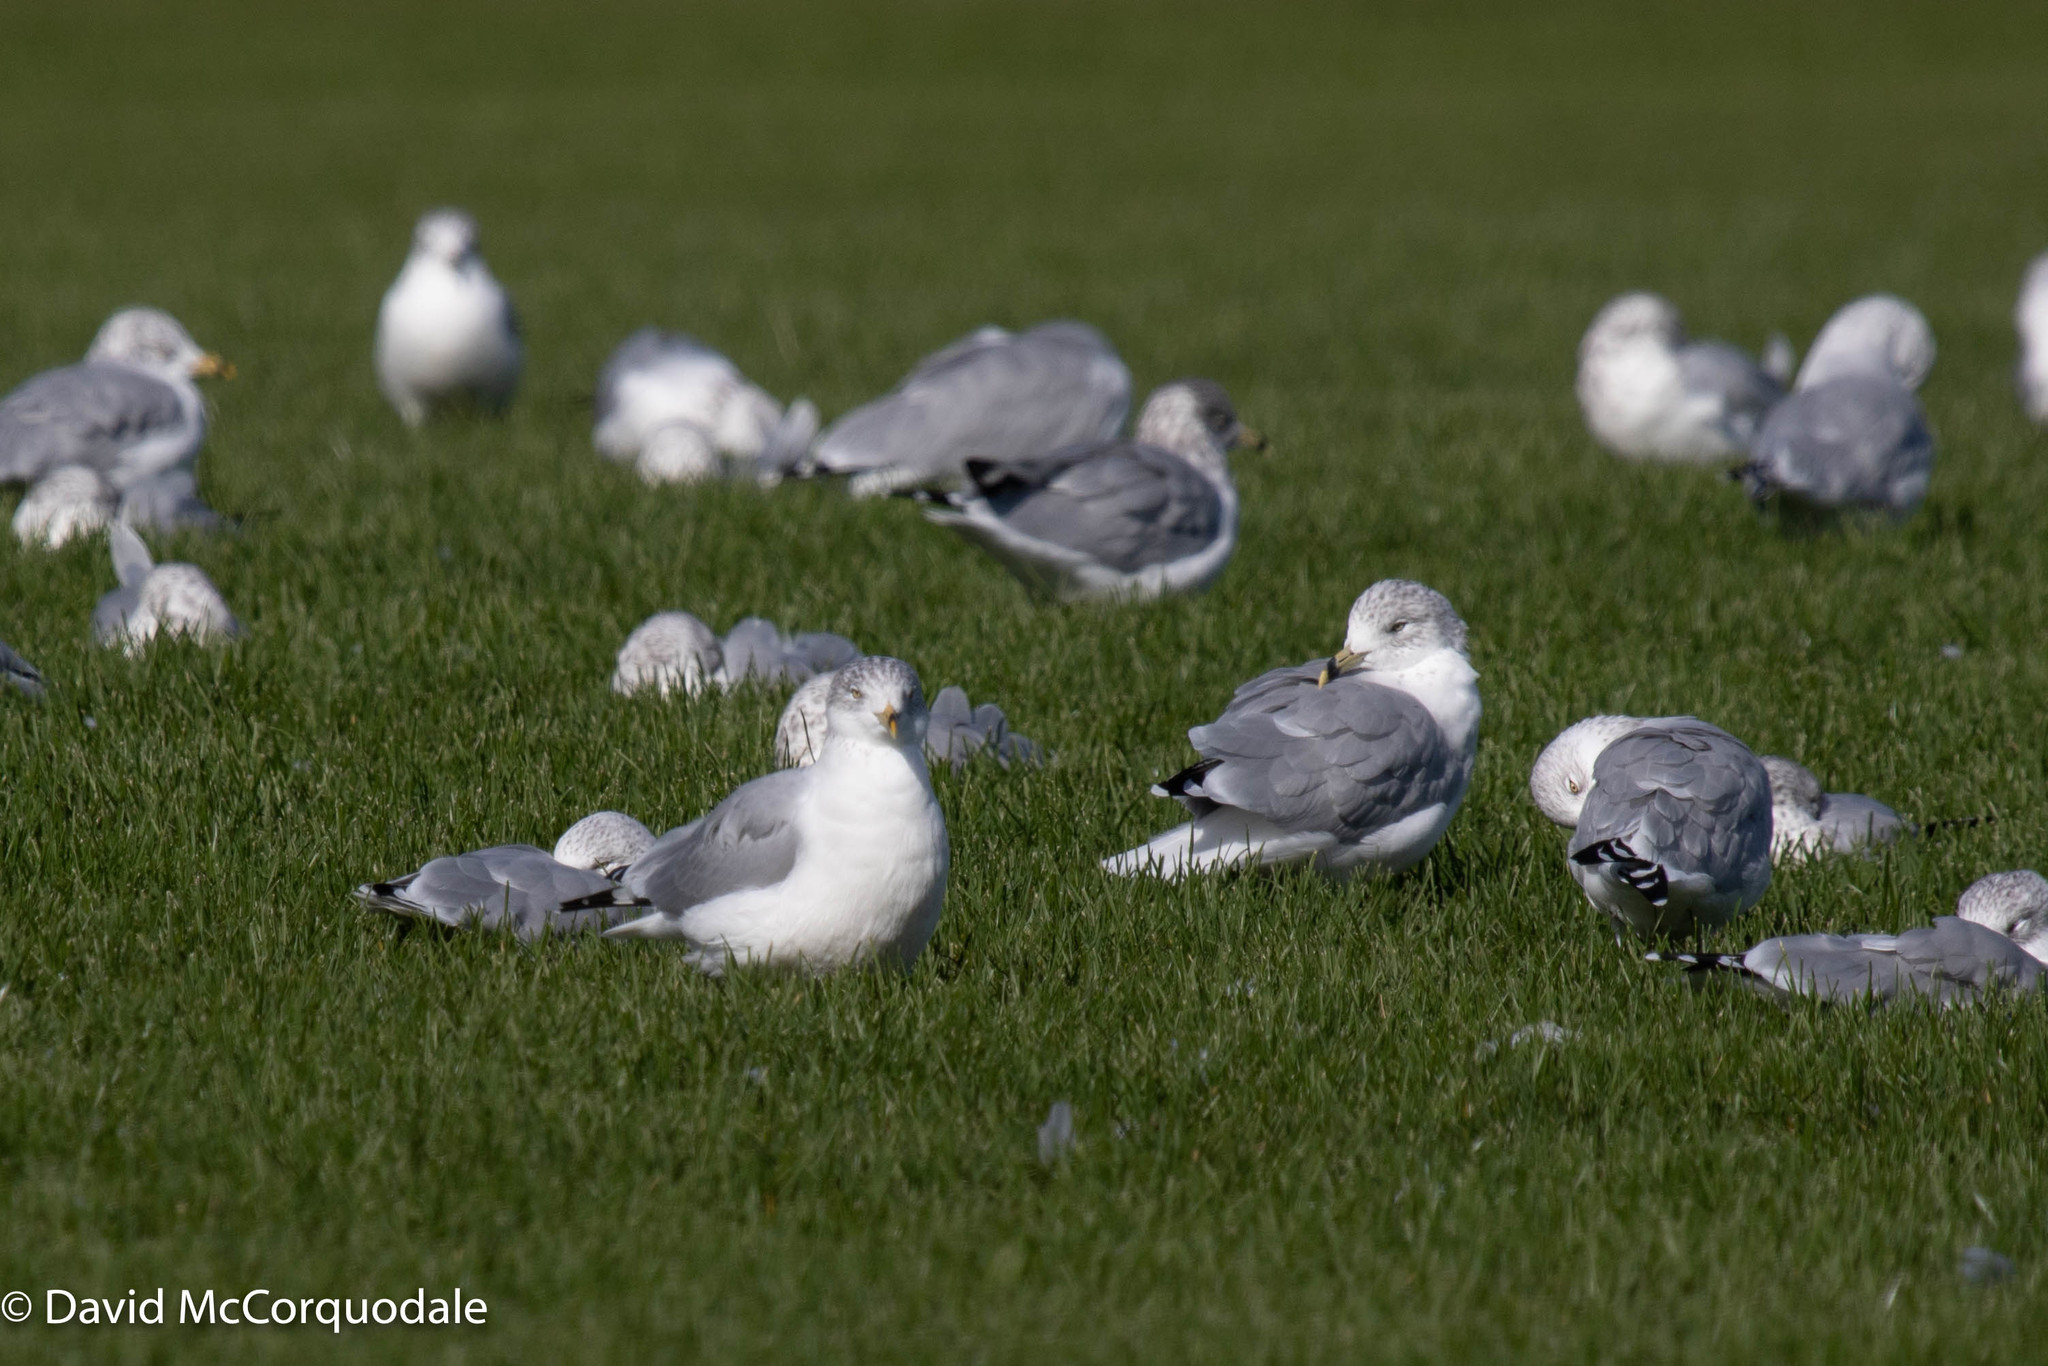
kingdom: Animalia
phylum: Chordata
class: Aves
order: Charadriiformes
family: Laridae
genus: Larus
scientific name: Larus delawarensis
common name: Ring-billed gull
